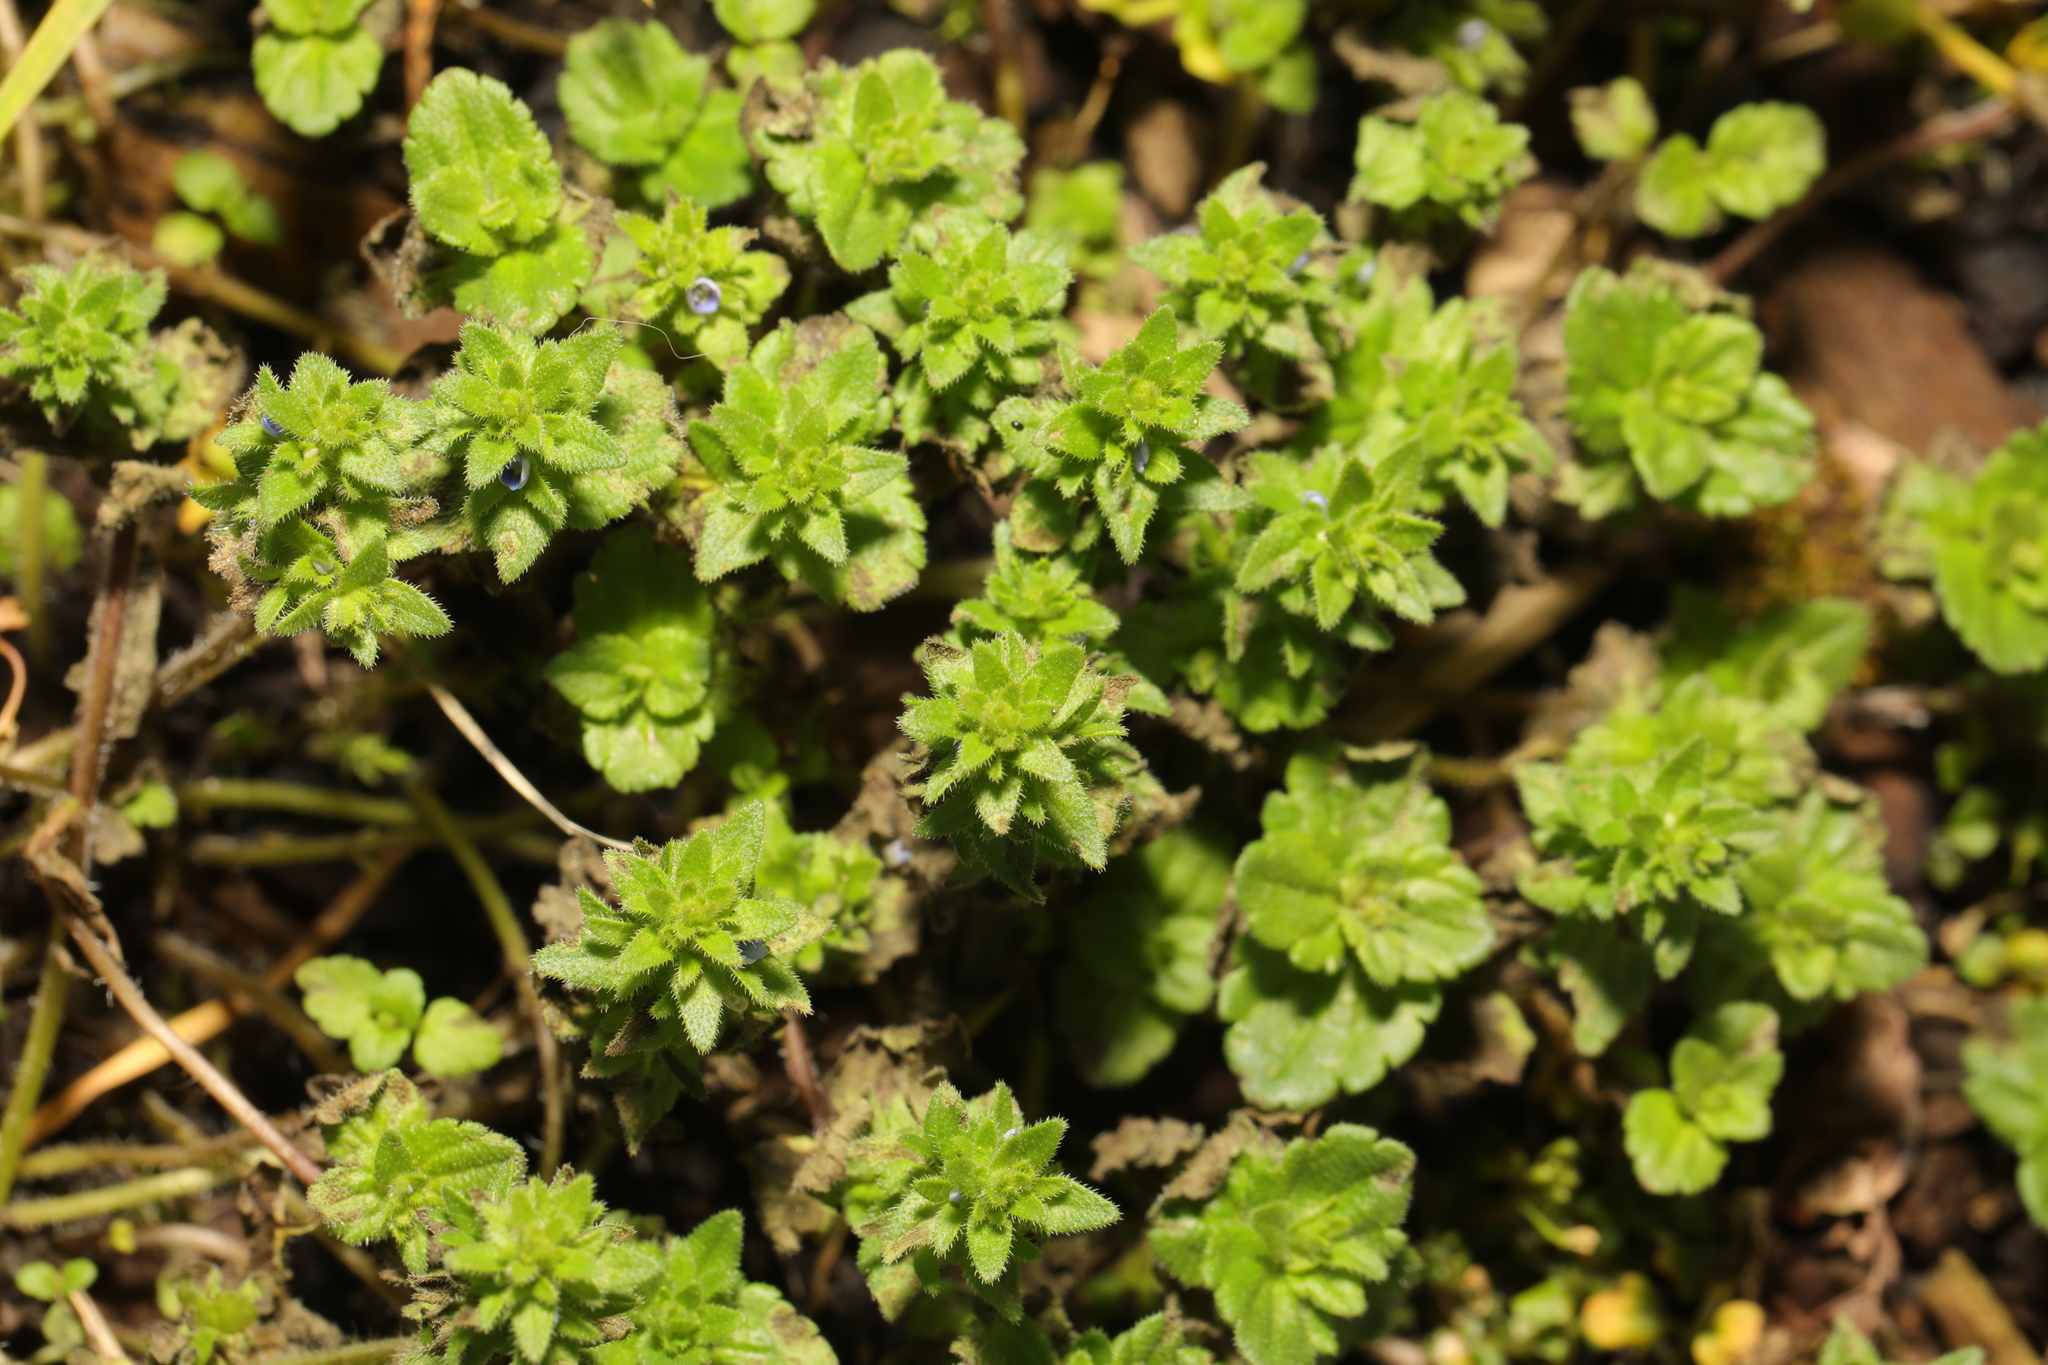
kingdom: Plantae
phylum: Tracheophyta
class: Magnoliopsida
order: Lamiales
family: Plantaginaceae
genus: Veronica
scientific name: Veronica arvensis
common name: Corn speedwell
